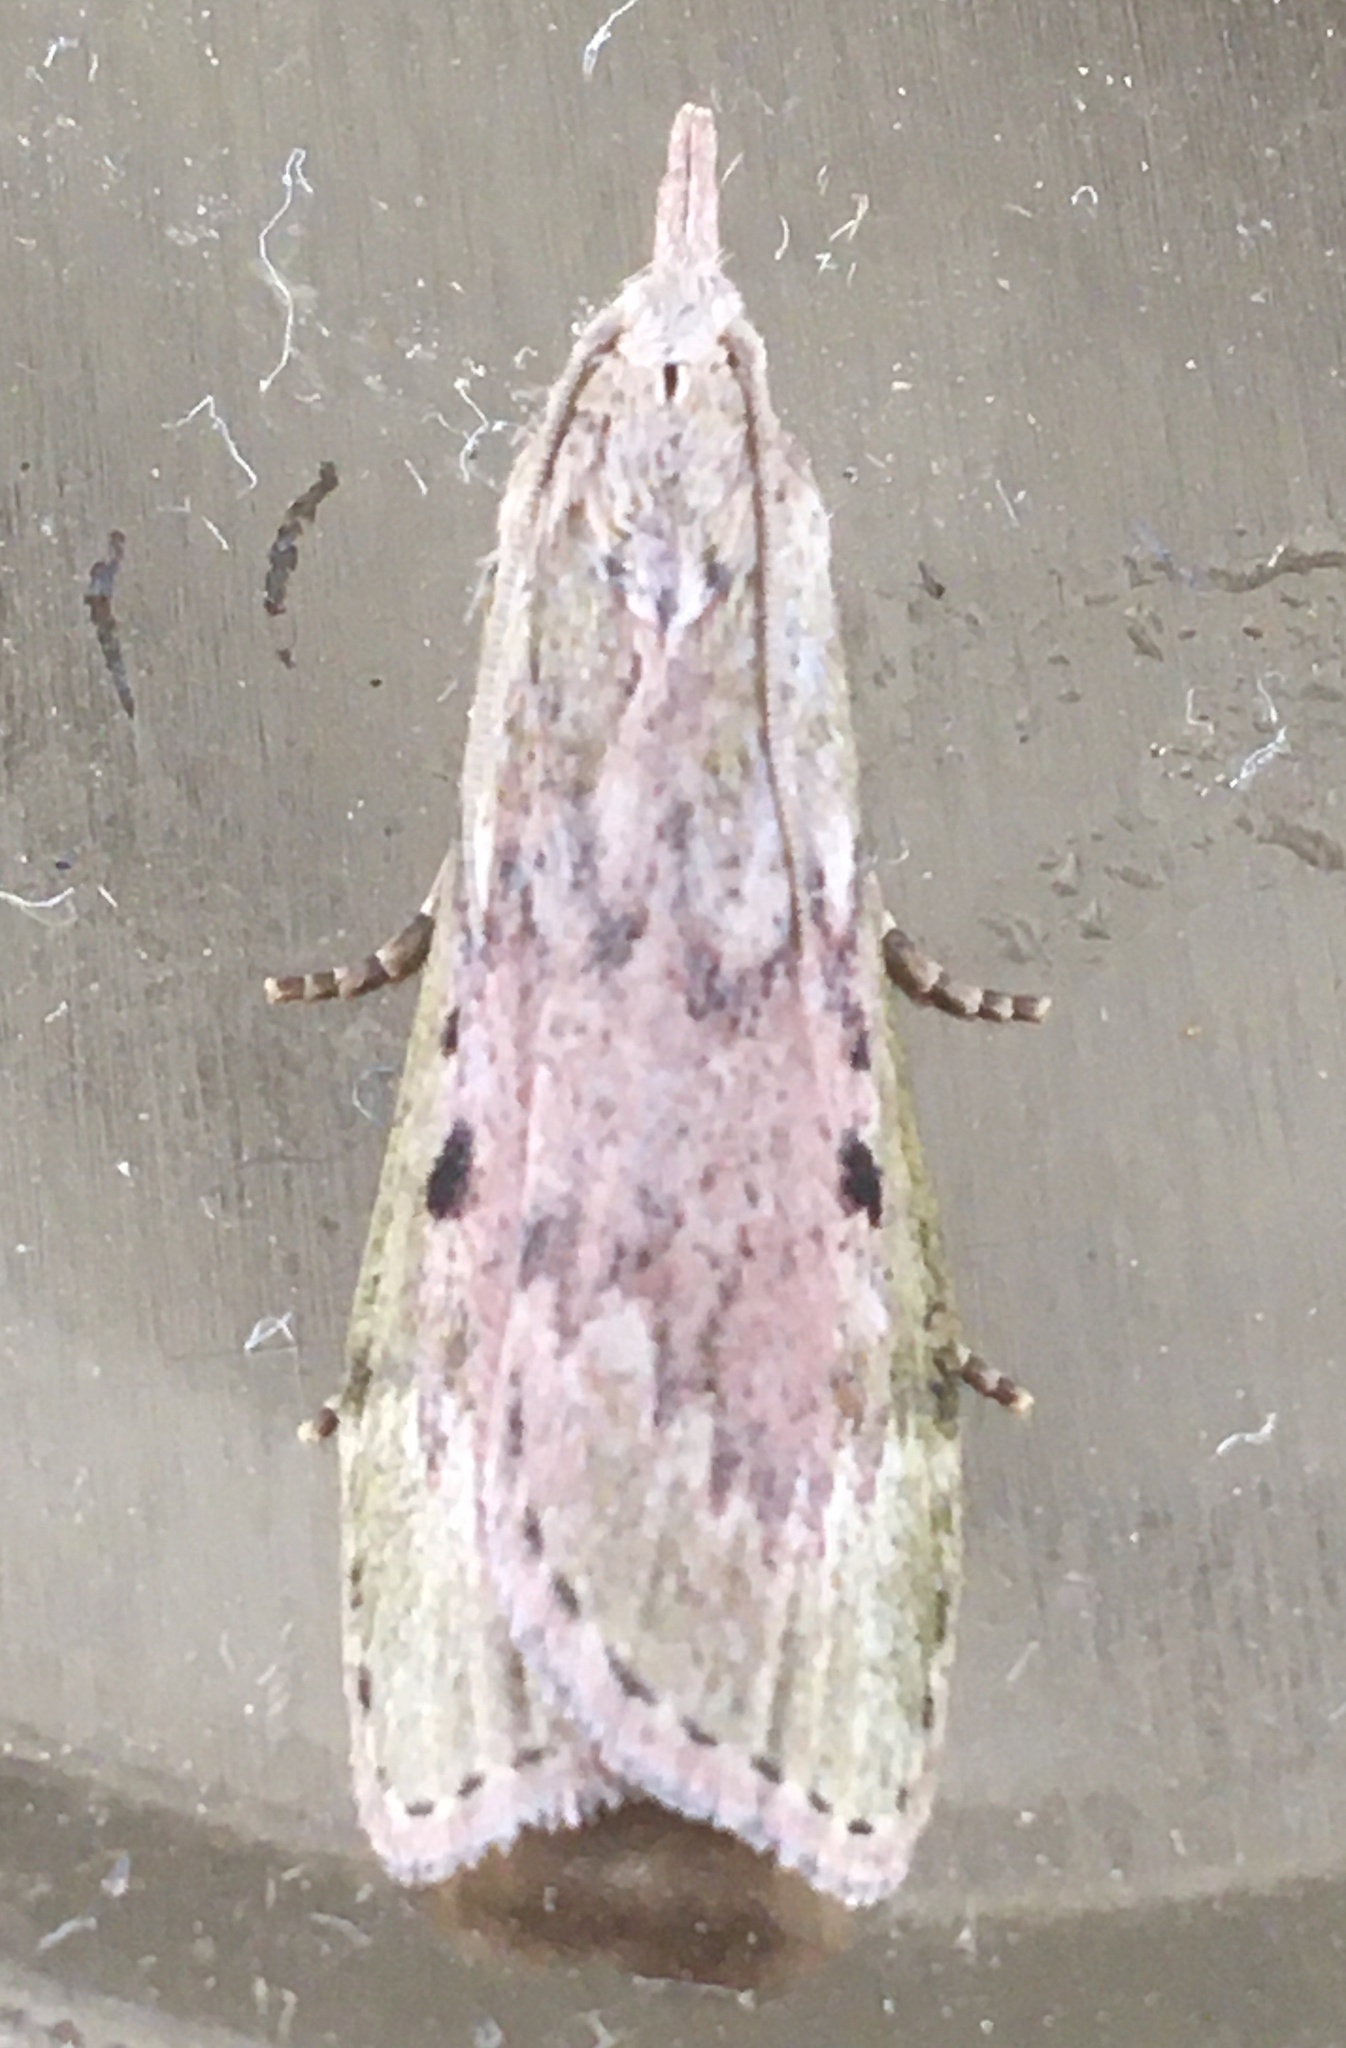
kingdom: Animalia
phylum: Arthropoda
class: Insecta
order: Lepidoptera
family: Pyralidae
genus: Aphomia
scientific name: Aphomia sociella
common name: Bee moth
